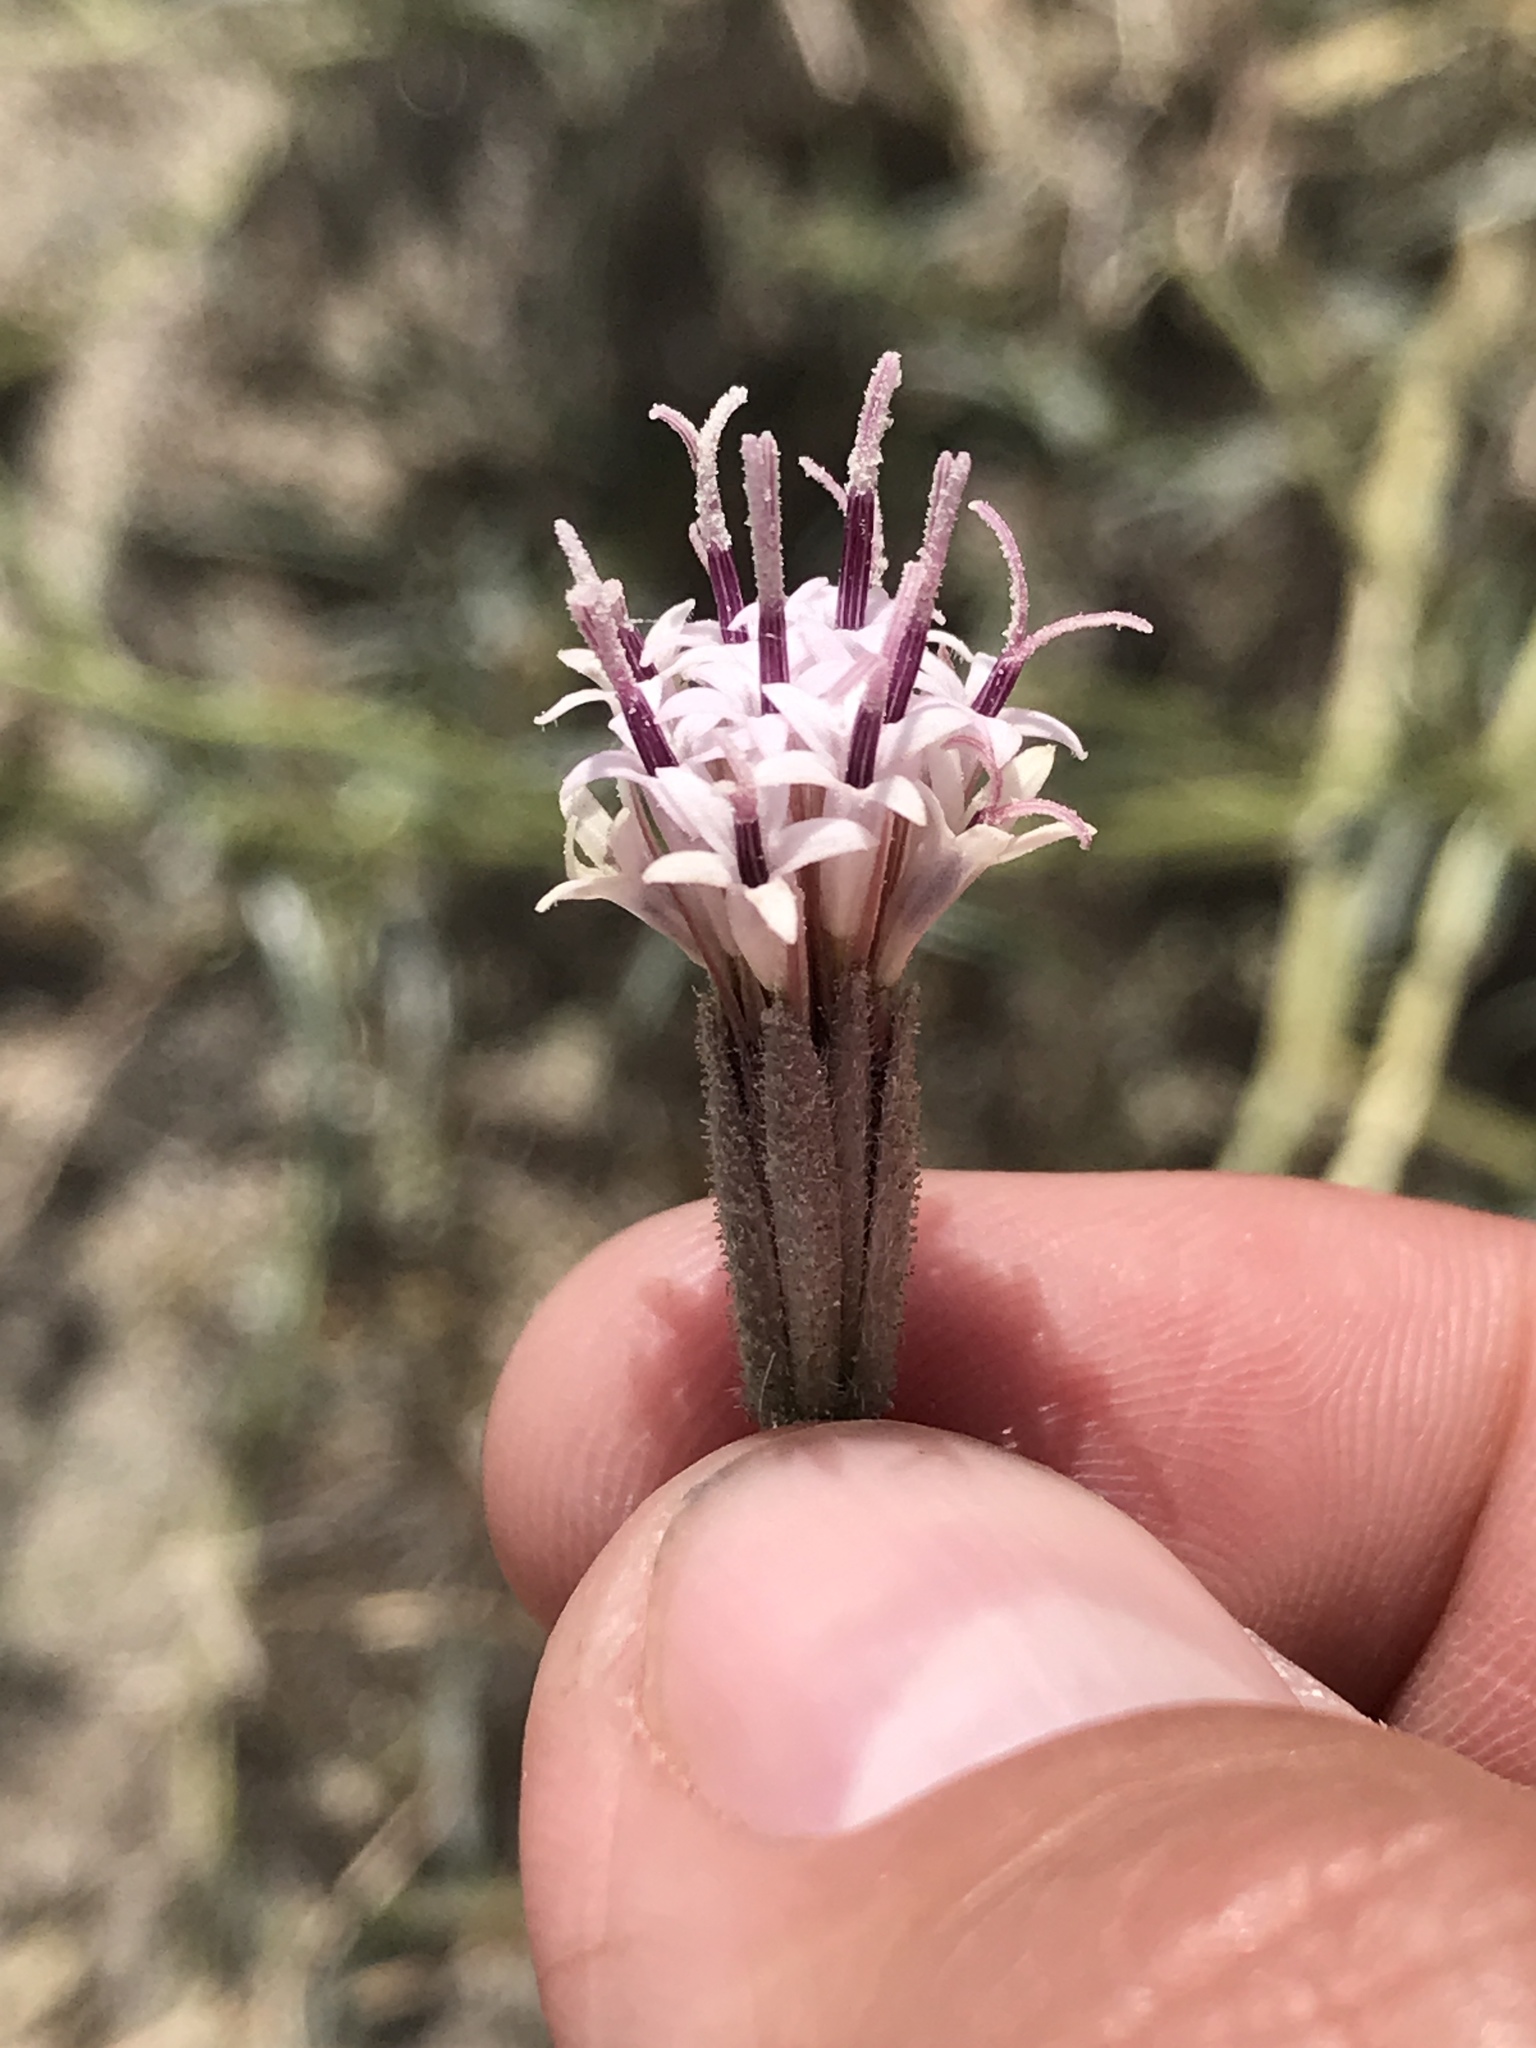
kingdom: Plantae
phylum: Tracheophyta
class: Magnoliopsida
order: Asterales
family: Asteraceae
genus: Palafoxia
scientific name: Palafoxia arida
